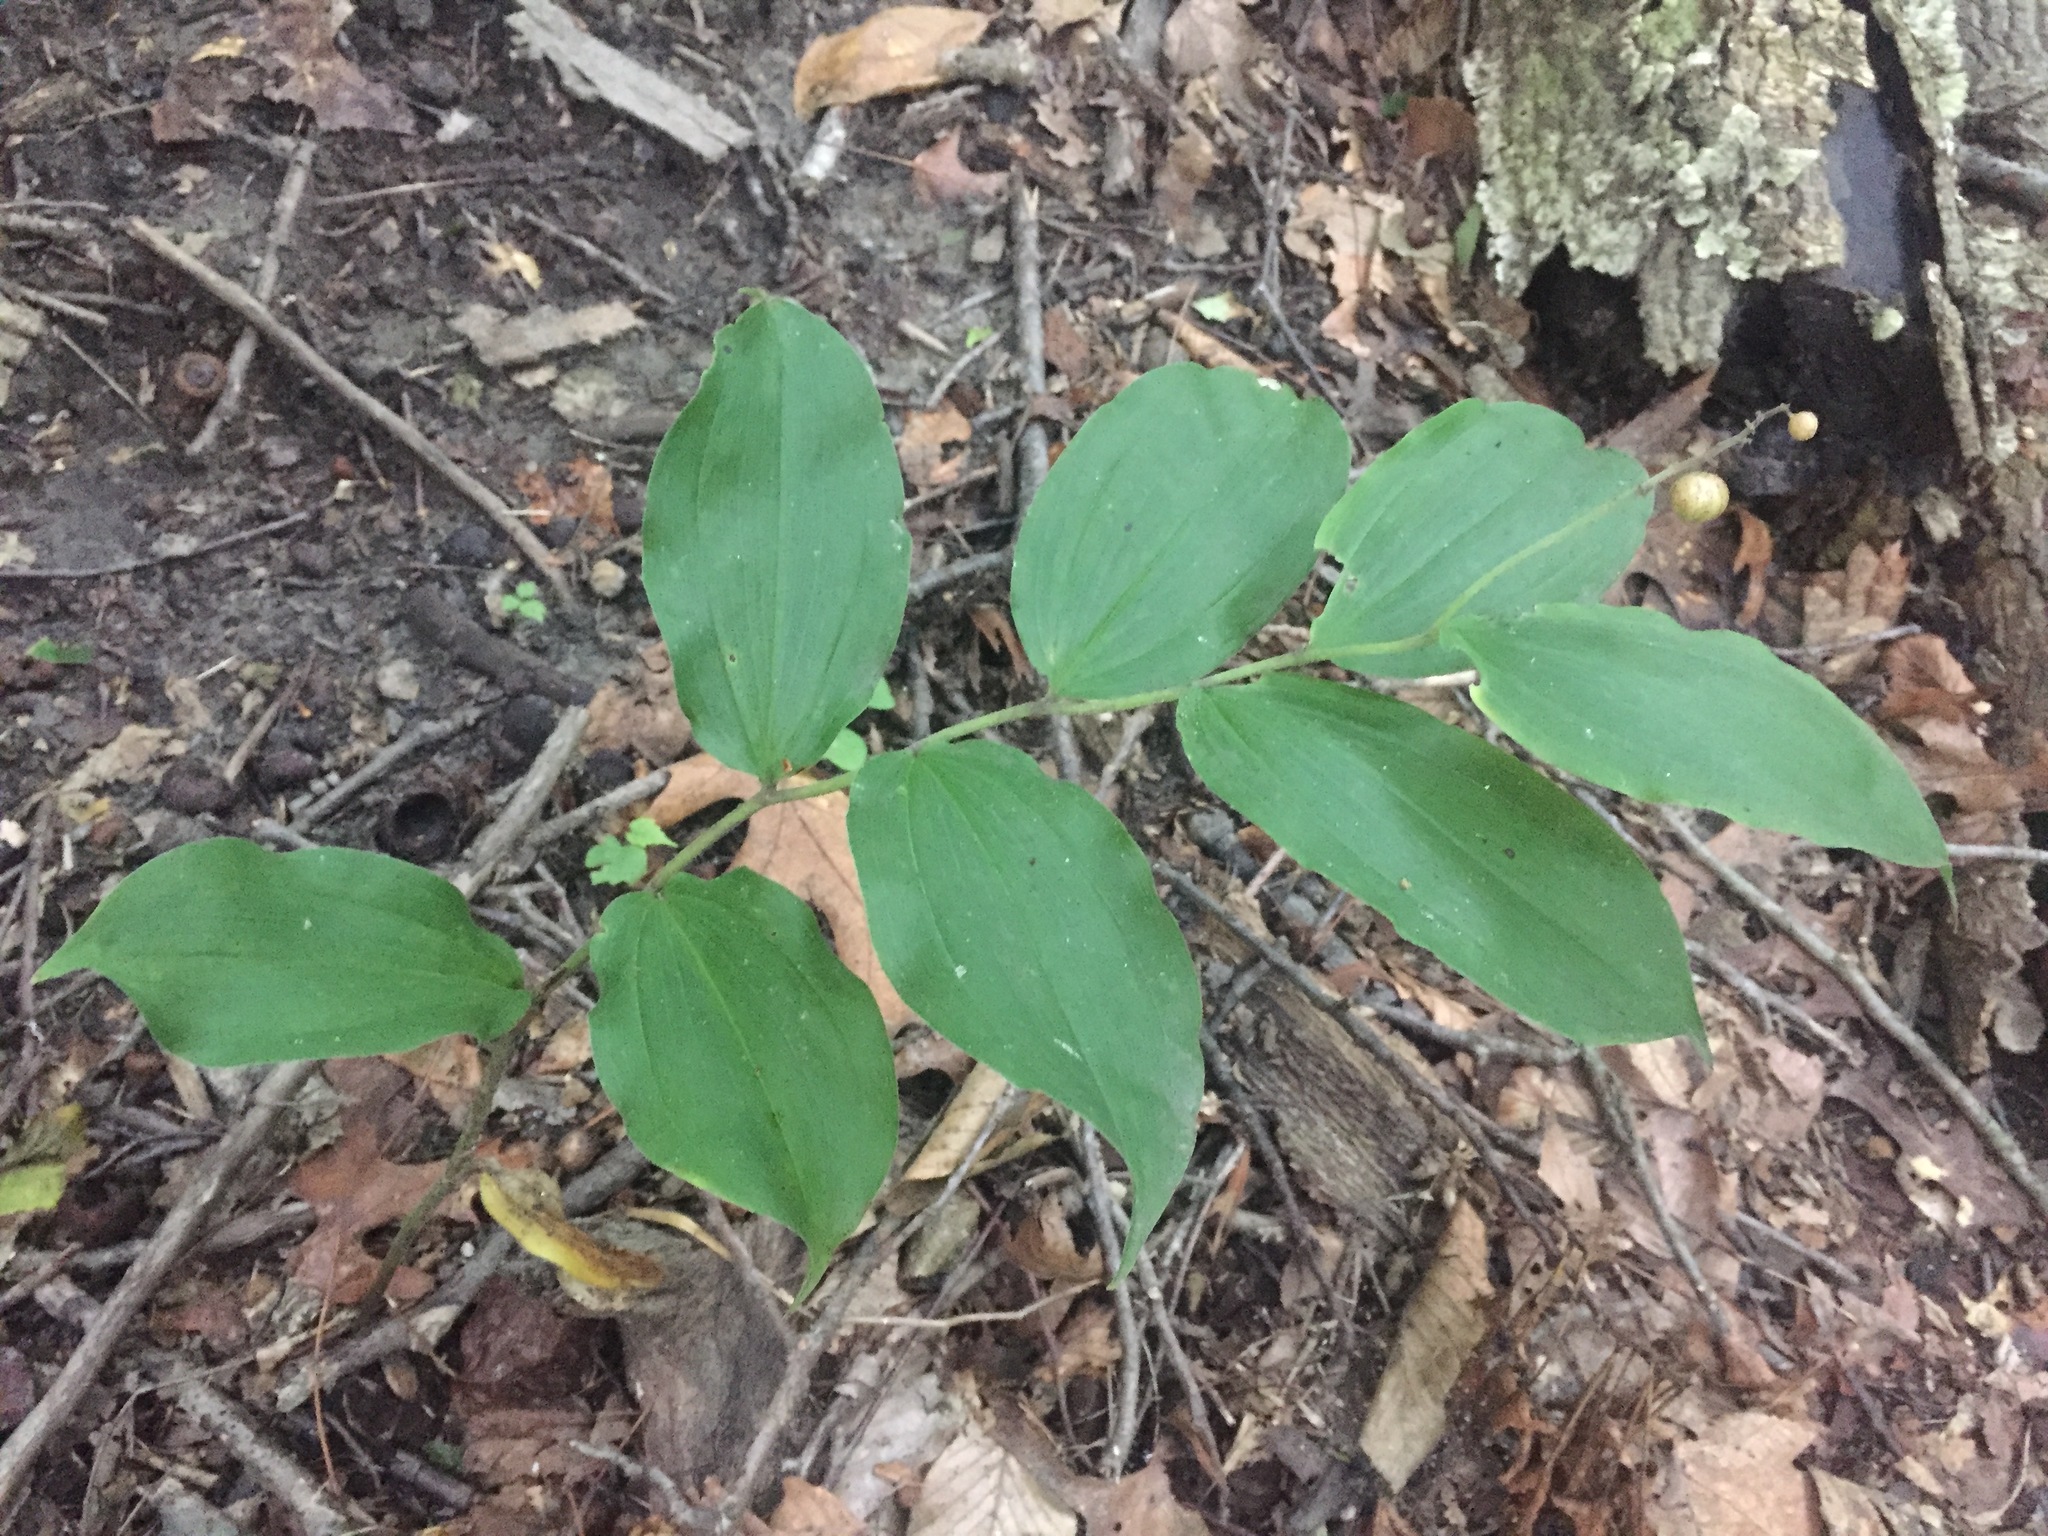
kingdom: Plantae
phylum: Tracheophyta
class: Liliopsida
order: Asparagales
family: Asparagaceae
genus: Maianthemum
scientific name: Maianthemum racemosum
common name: False spikenard
